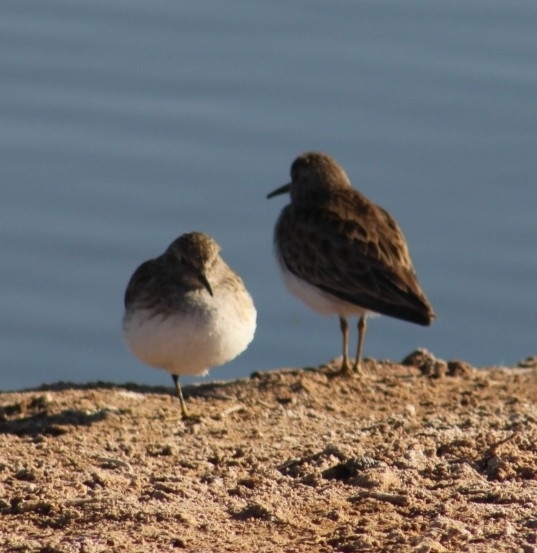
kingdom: Animalia
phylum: Chordata
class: Aves
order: Charadriiformes
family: Scolopacidae
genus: Calidris
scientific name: Calidris minutilla
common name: Least sandpiper
